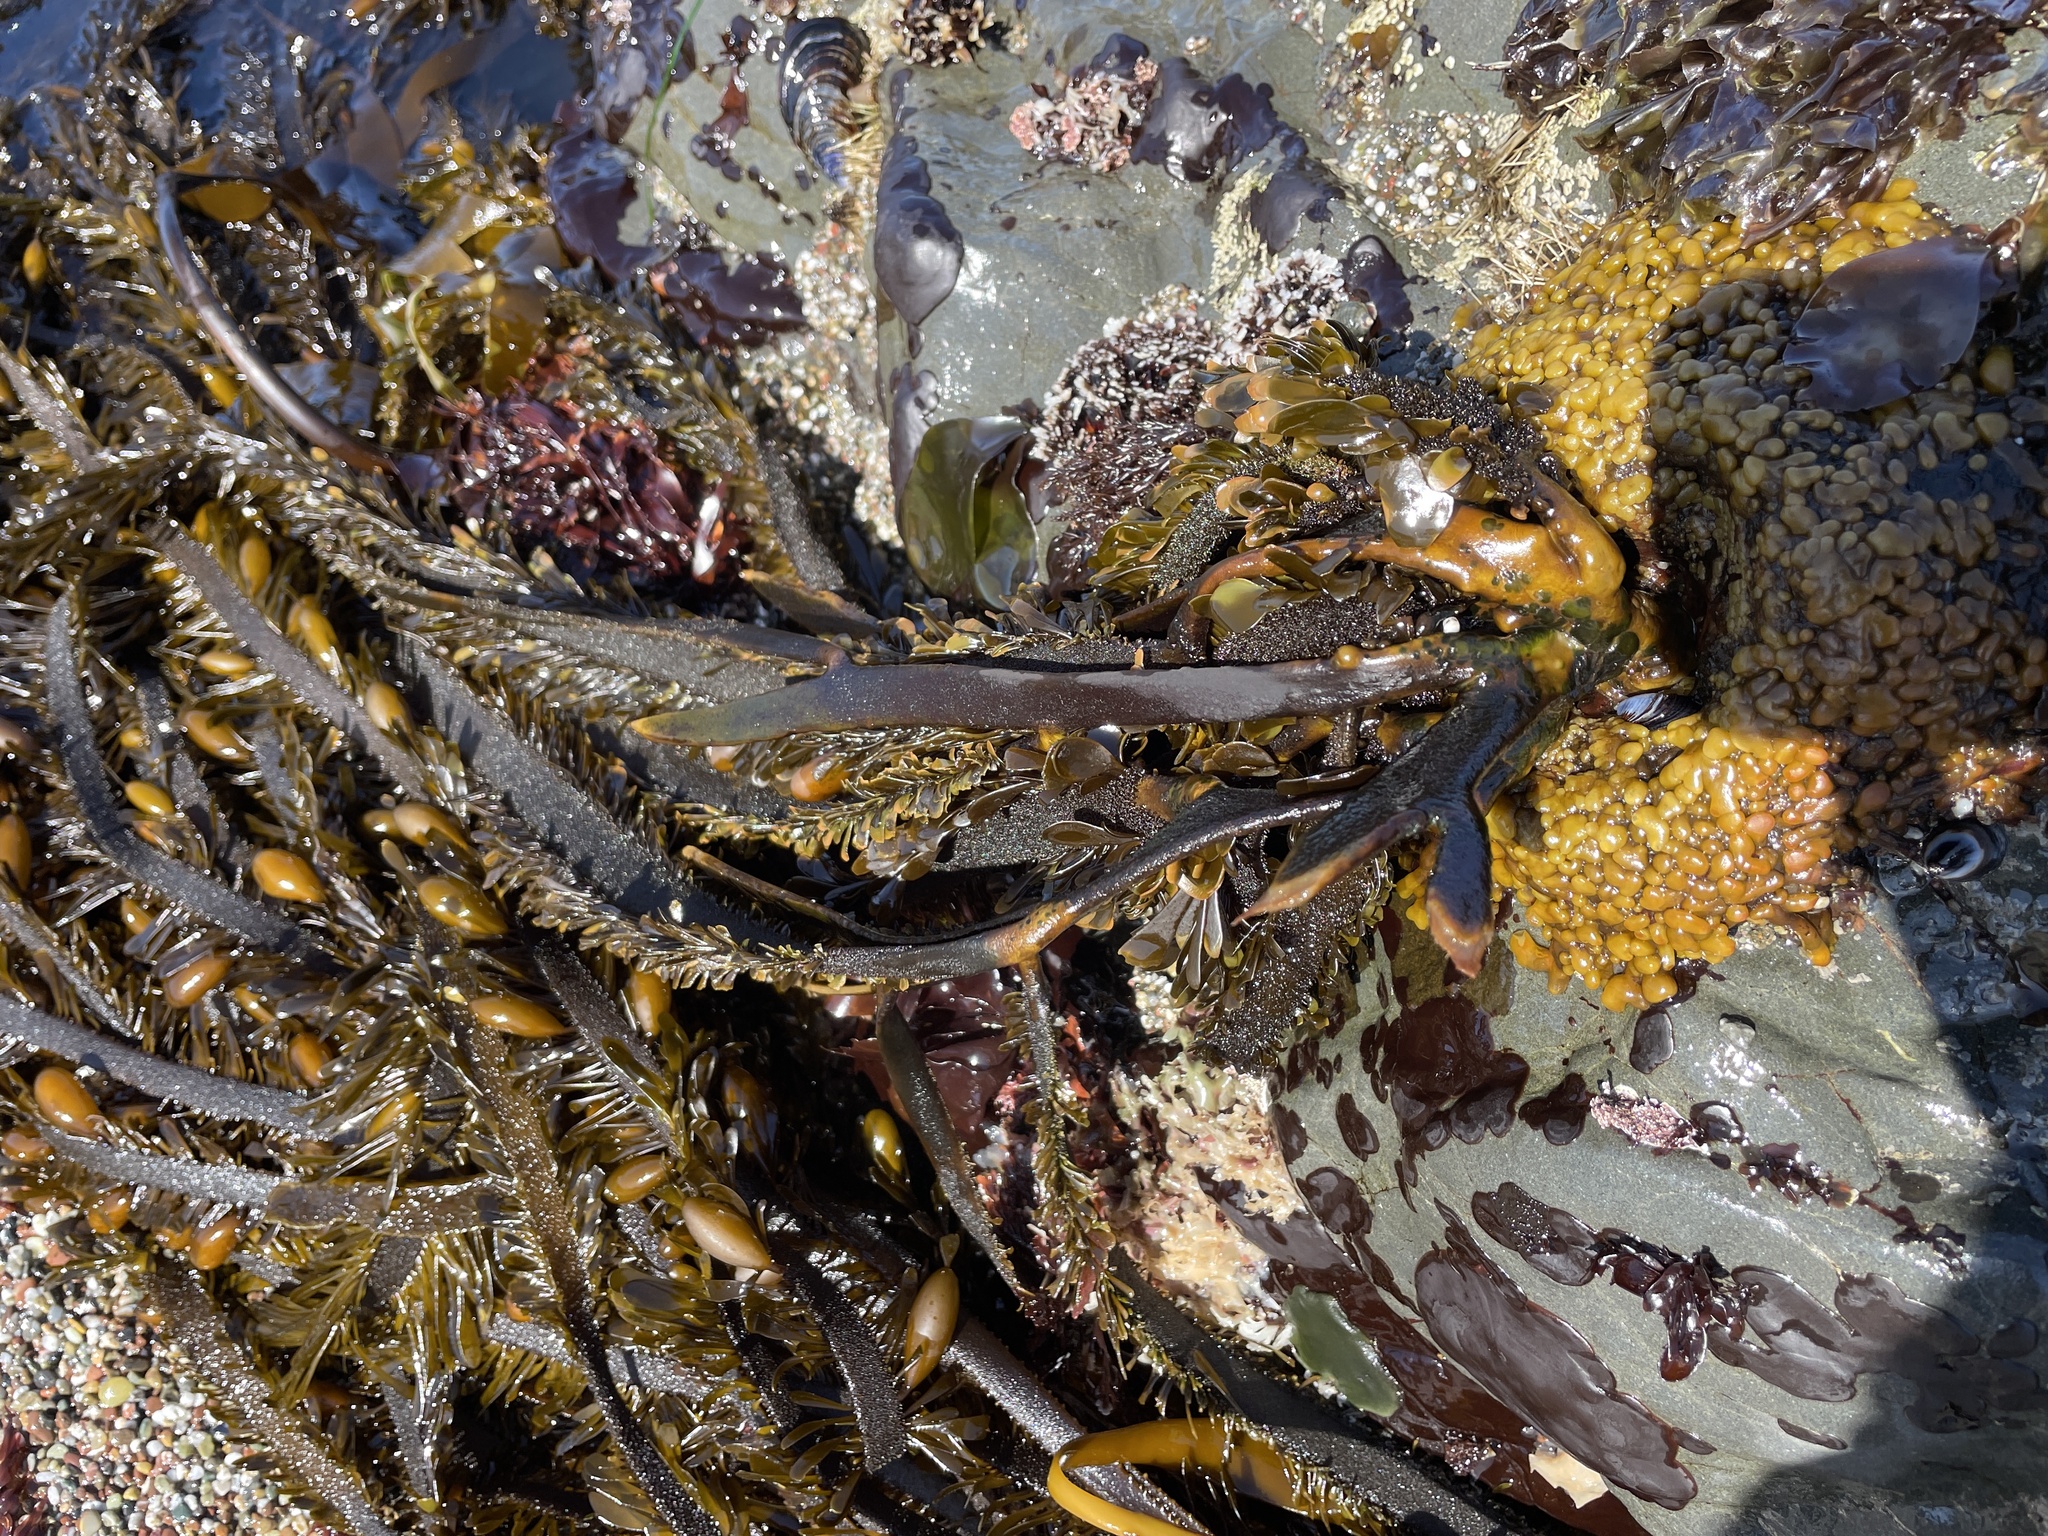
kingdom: Chromista
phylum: Ochrophyta
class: Phaeophyceae
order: Laminariales
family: Lessoniaceae
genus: Egregia
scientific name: Egregia menziesii
